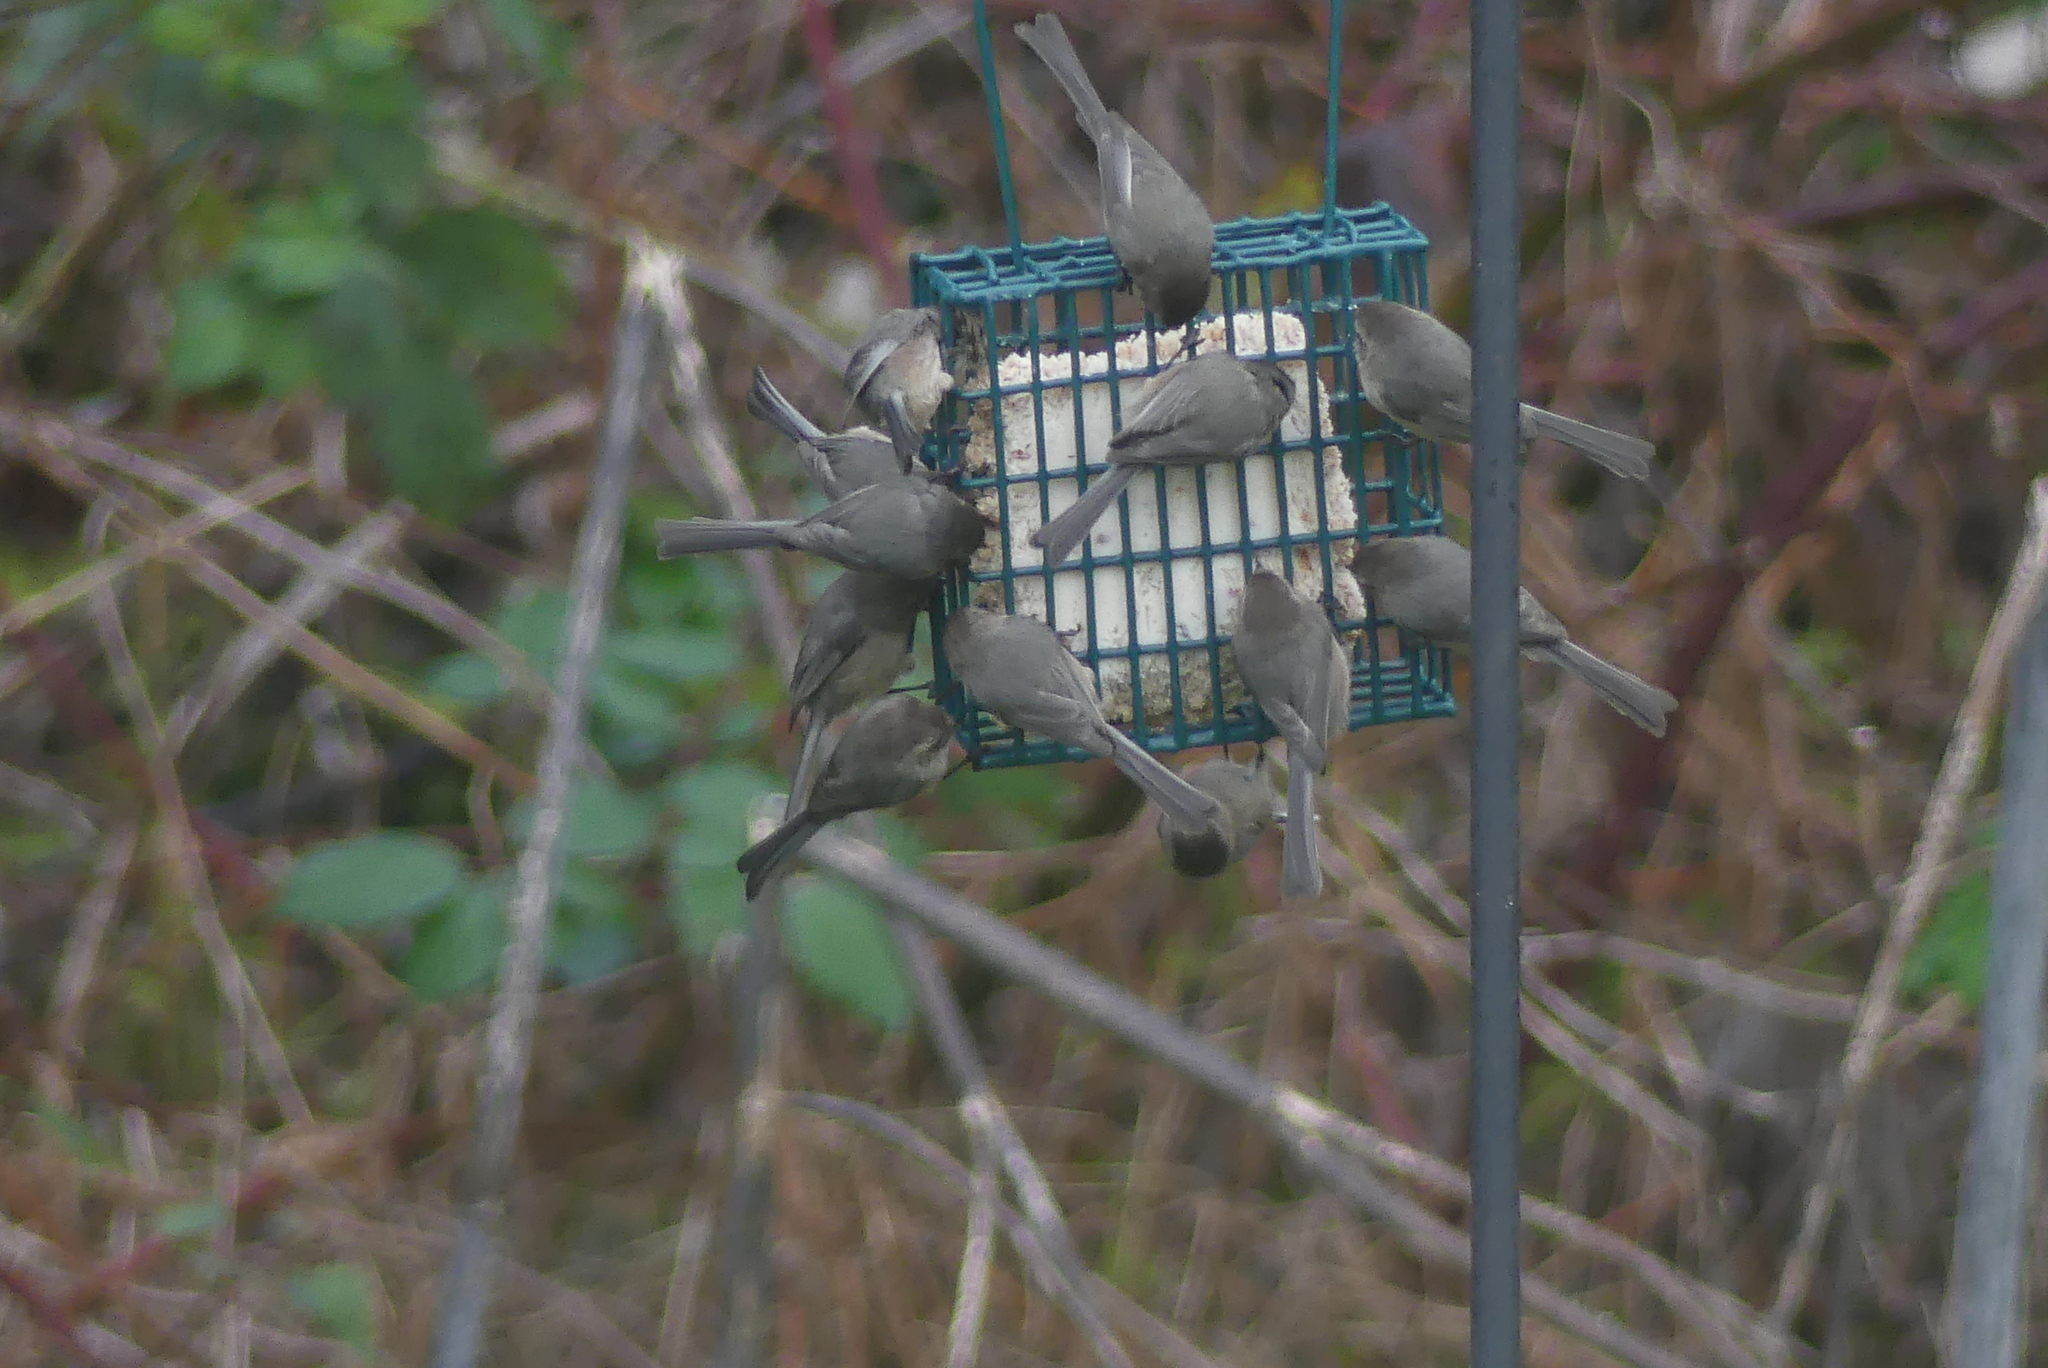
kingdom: Animalia
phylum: Chordata
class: Aves
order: Passeriformes
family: Aegithalidae
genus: Psaltriparus
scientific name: Psaltriparus minimus
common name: American bushtit
